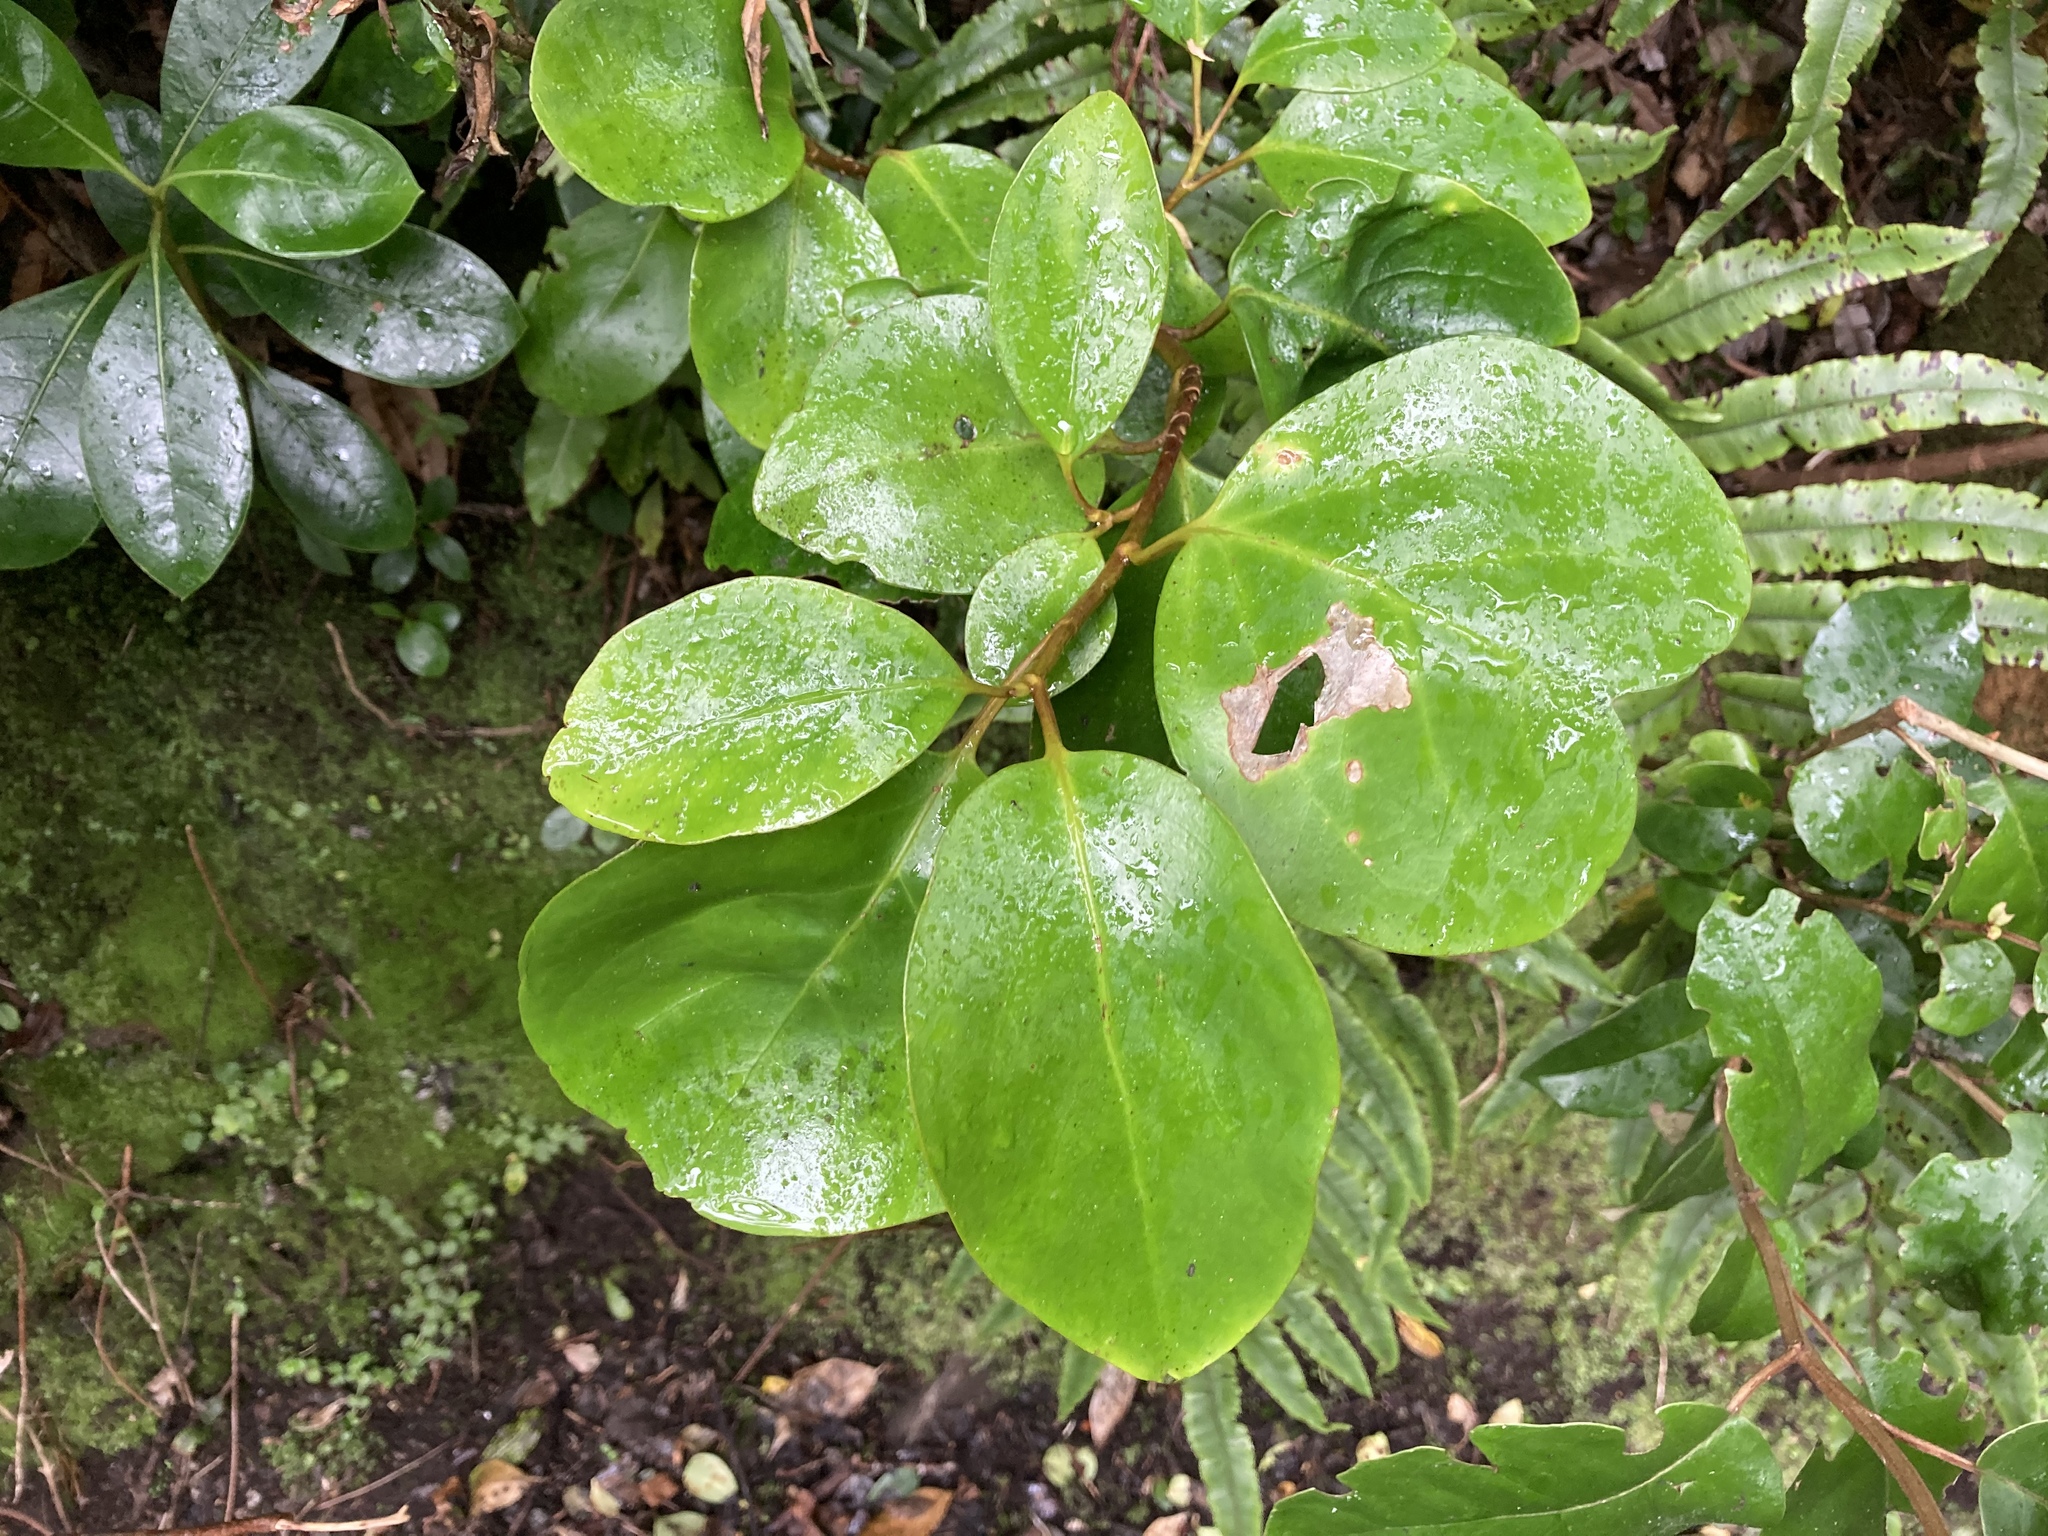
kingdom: Plantae
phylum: Tracheophyta
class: Magnoliopsida
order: Apiales
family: Griseliniaceae
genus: Griselinia
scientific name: Griselinia littoralis
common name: New zealand broadleaf
